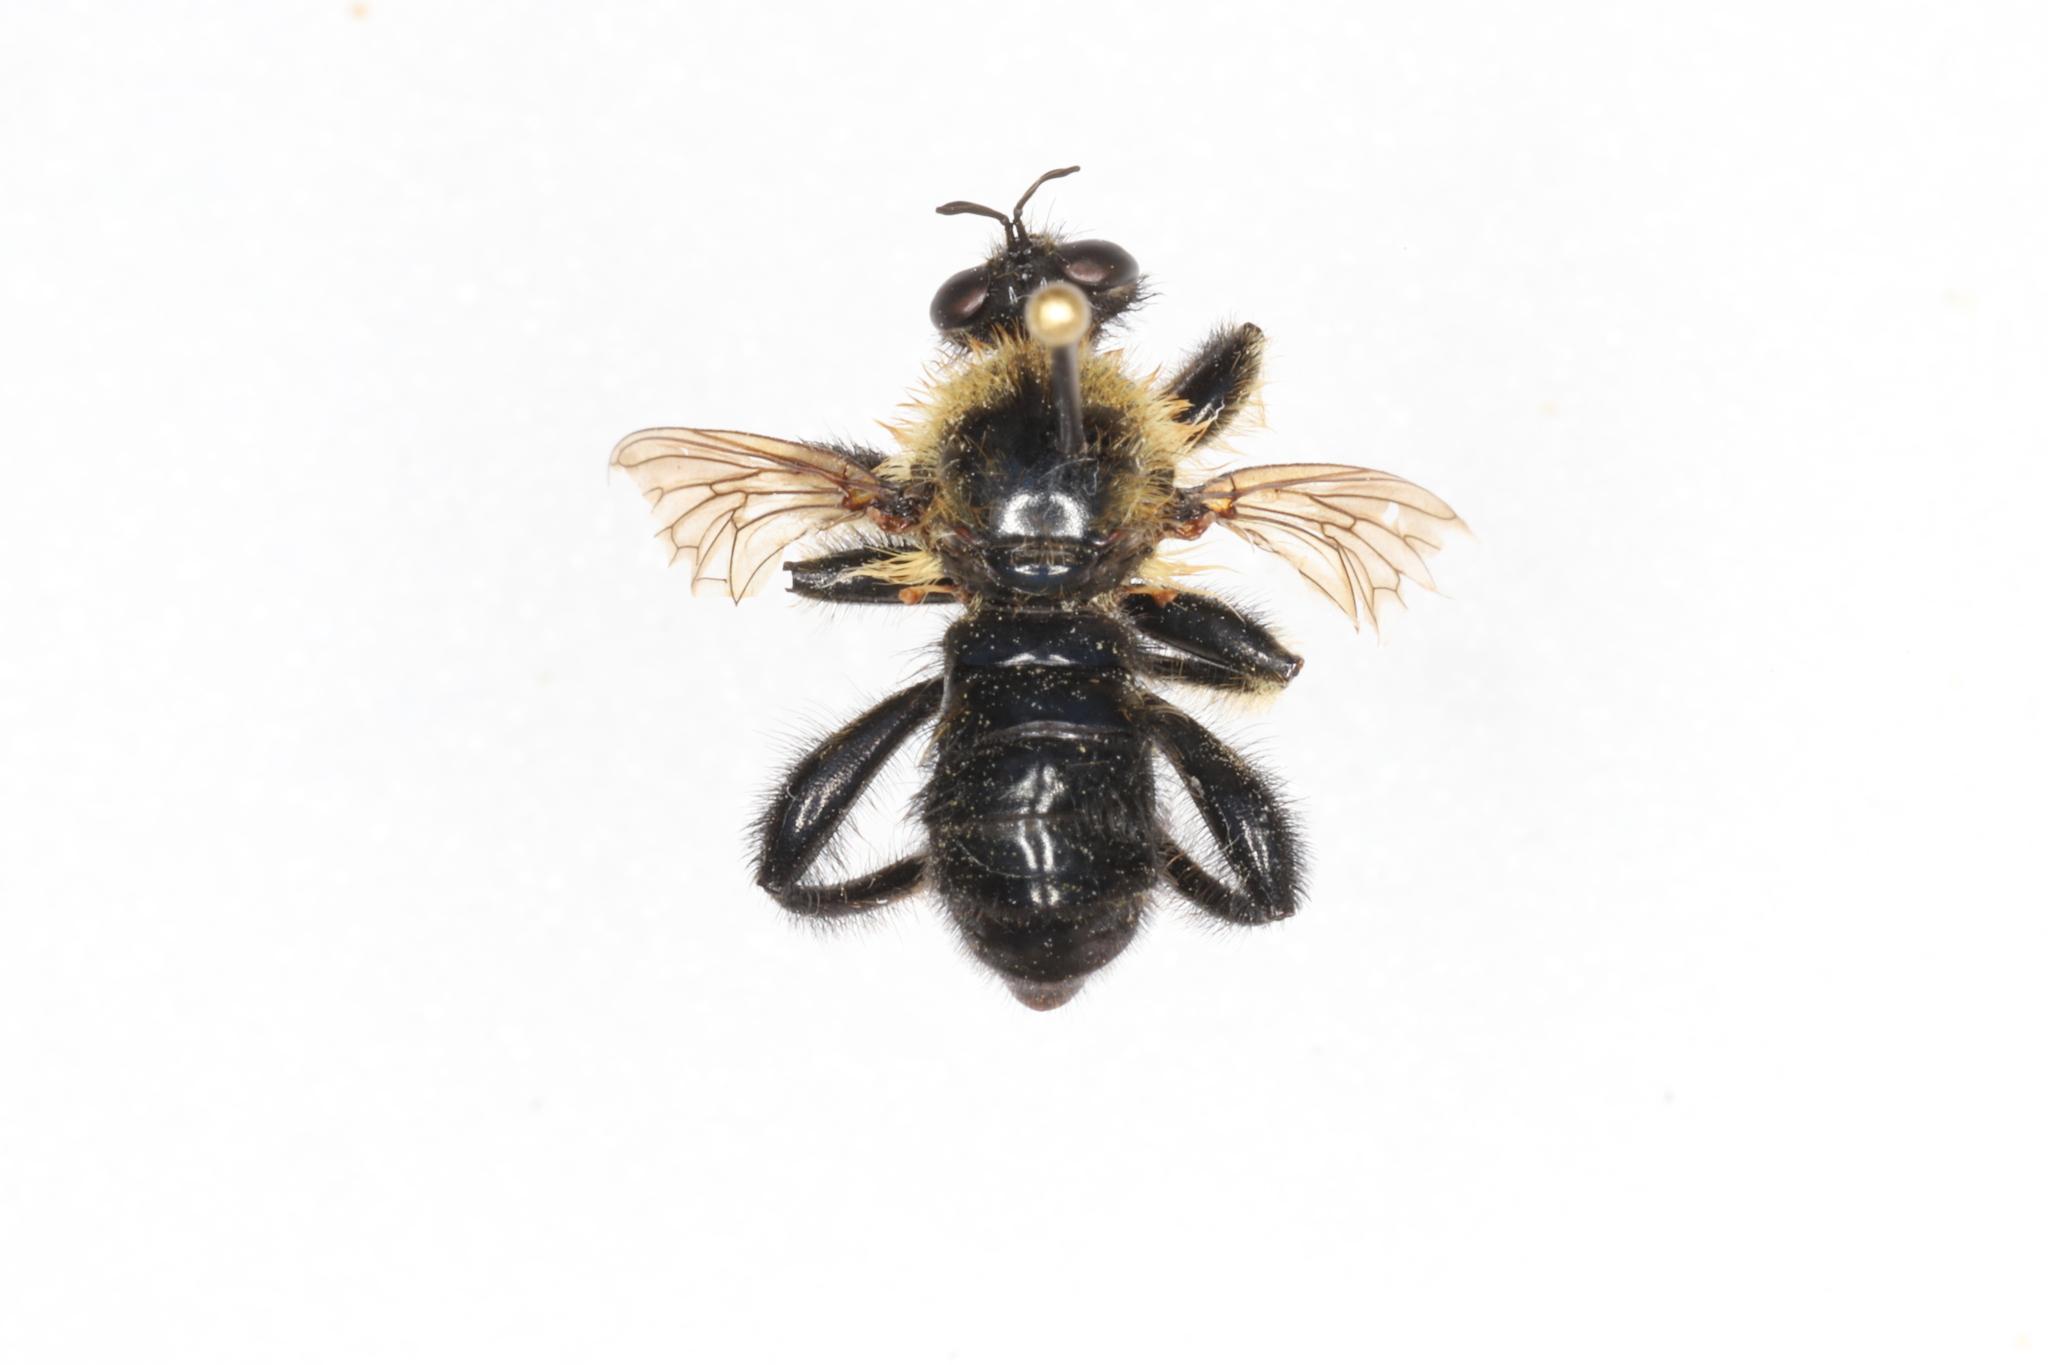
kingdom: Animalia
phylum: Arthropoda
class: Insecta
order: Diptera
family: Asilidae
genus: Laphria
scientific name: Laphria huron
